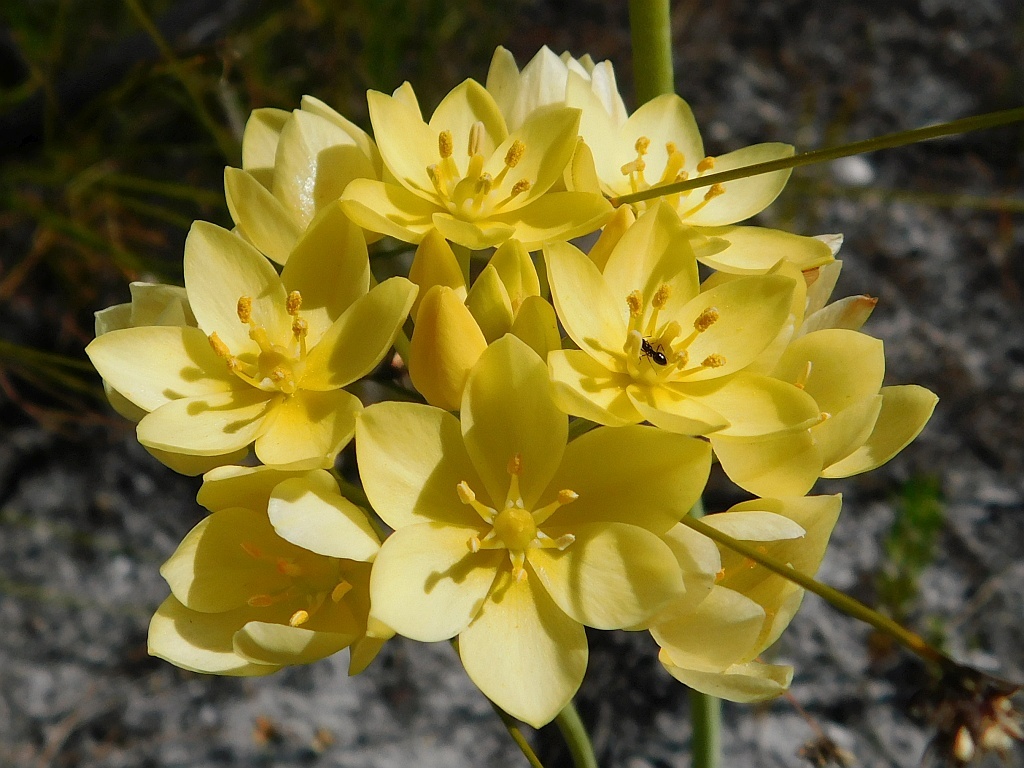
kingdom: Plantae
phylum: Tracheophyta
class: Liliopsida
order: Asparagales
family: Asparagaceae
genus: Ornithogalum
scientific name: Ornithogalum dubium
